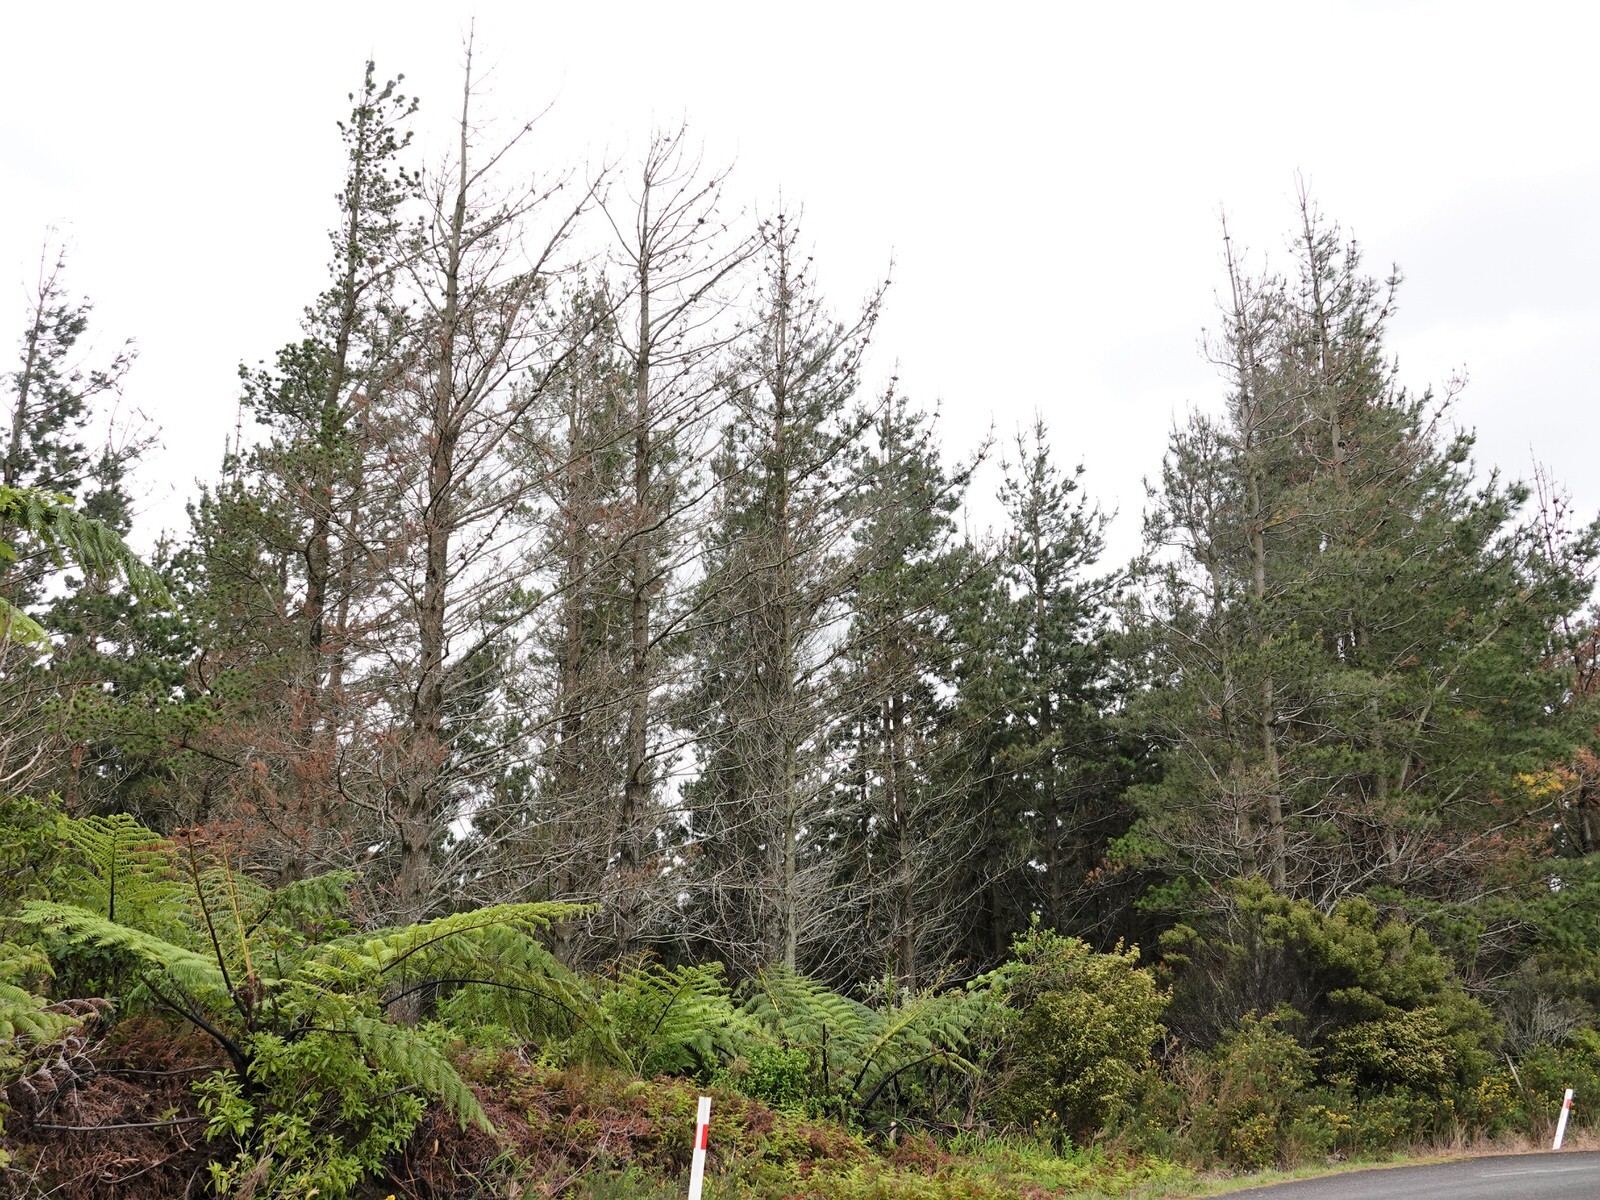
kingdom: Plantae
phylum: Tracheophyta
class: Pinopsida
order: Pinales
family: Pinaceae
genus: Pinus
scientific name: Pinus radiata
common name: Monterey pine
